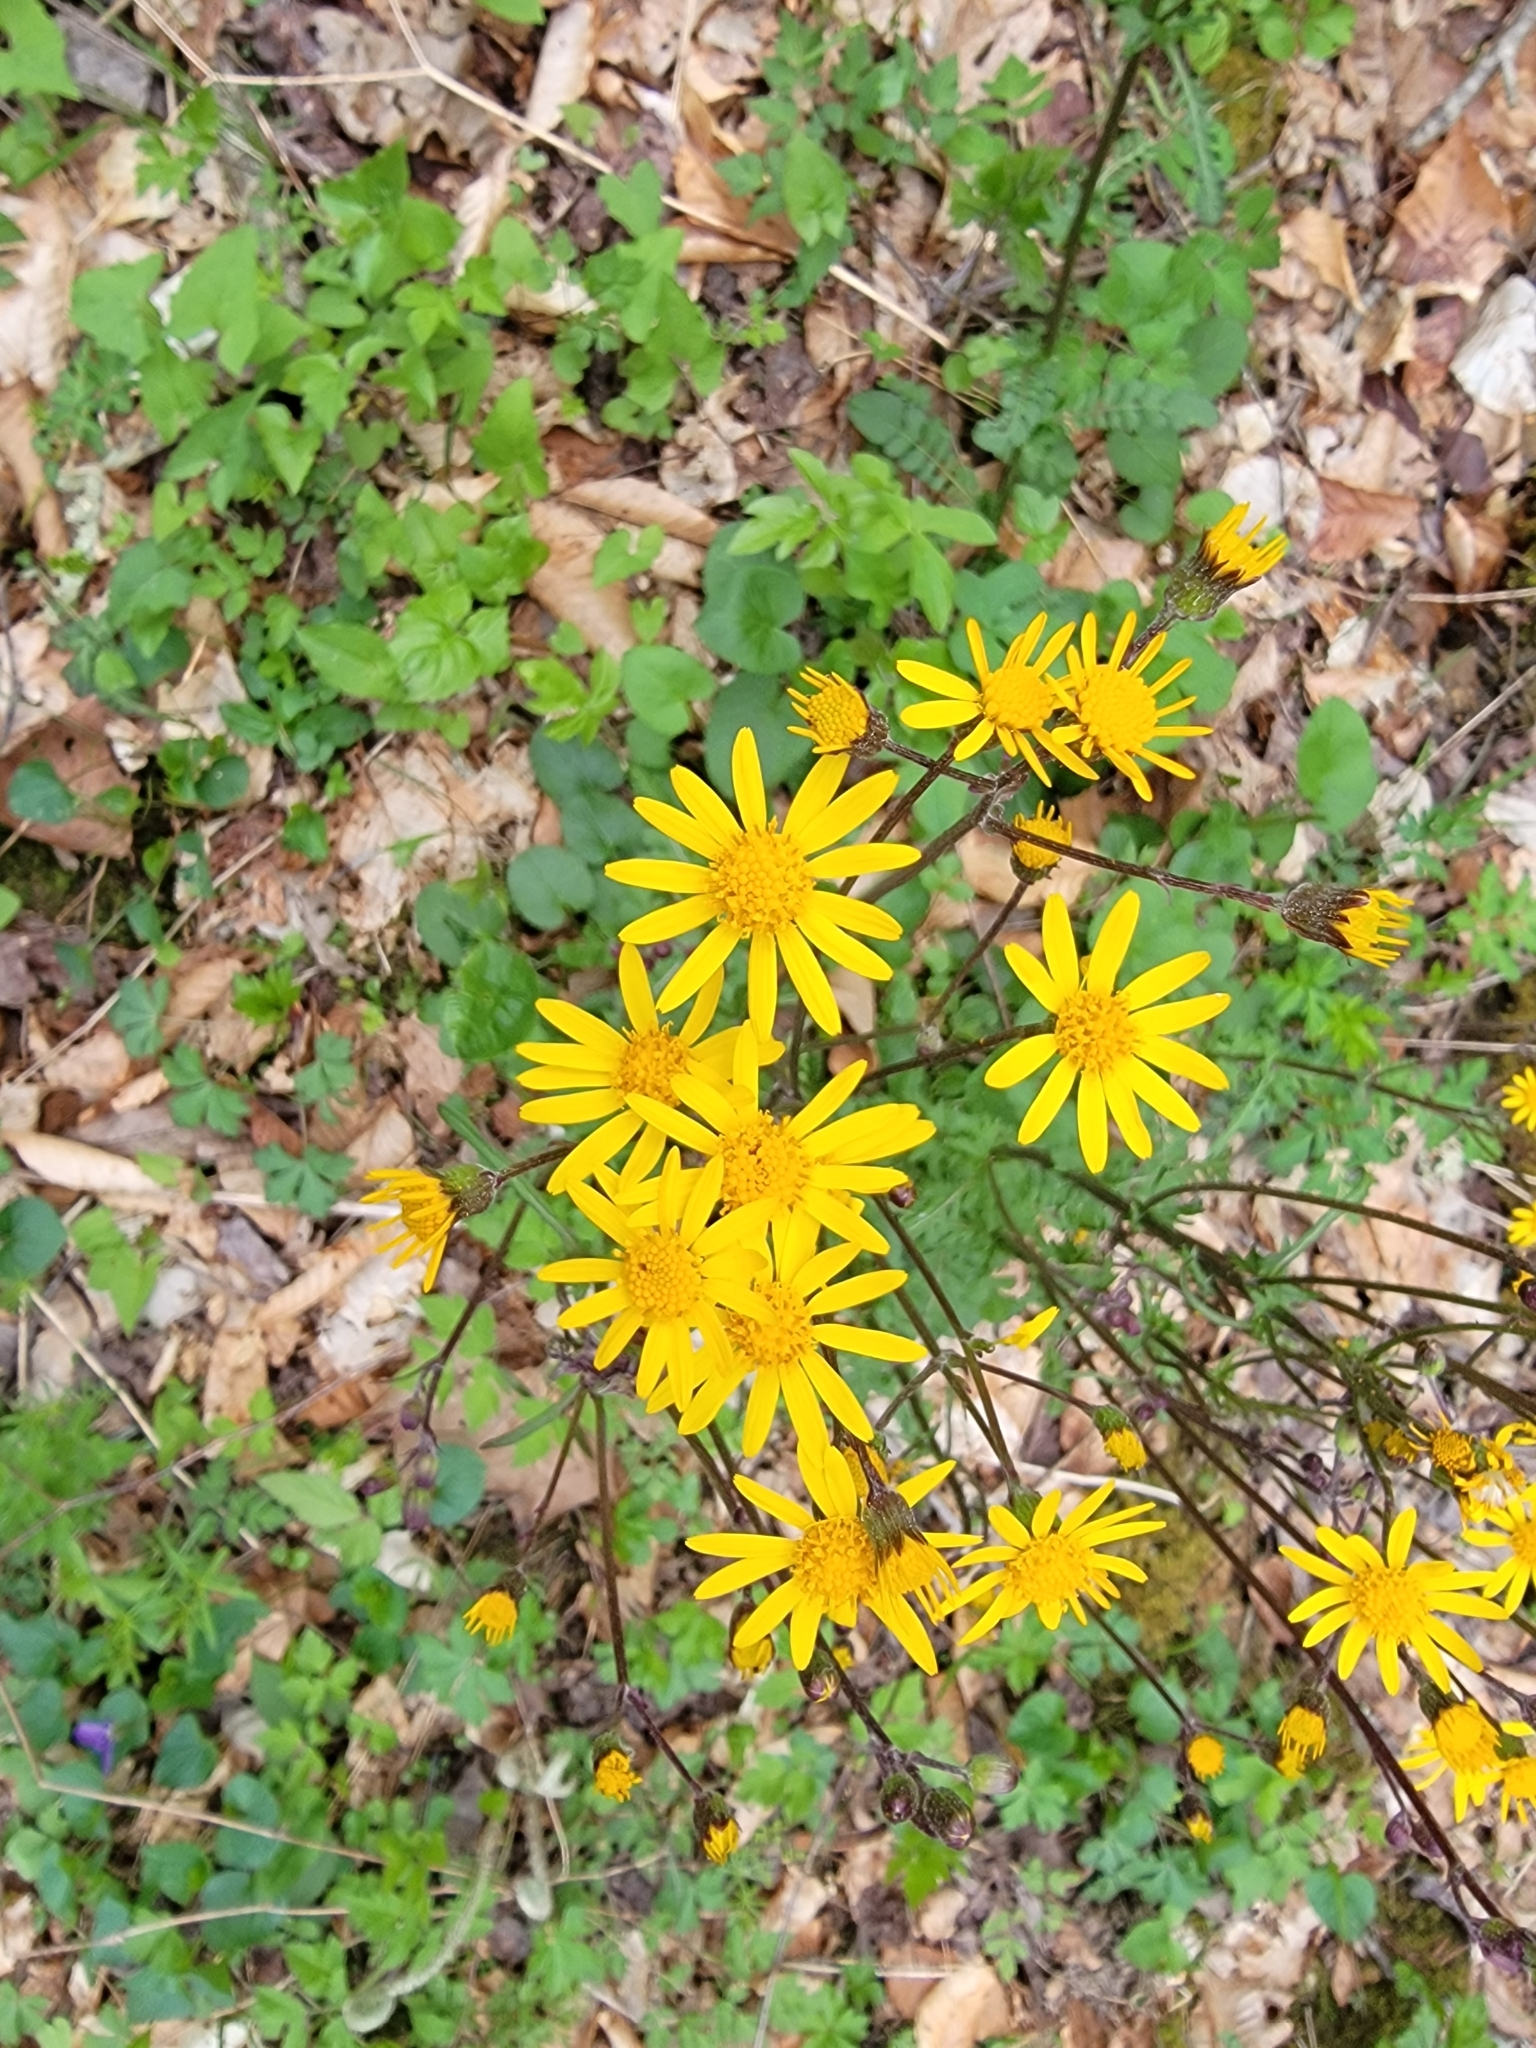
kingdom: Plantae
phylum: Tracheophyta
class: Magnoliopsida
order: Asterales
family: Asteraceae
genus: Packera
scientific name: Packera aurea
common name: Golden groundsel
